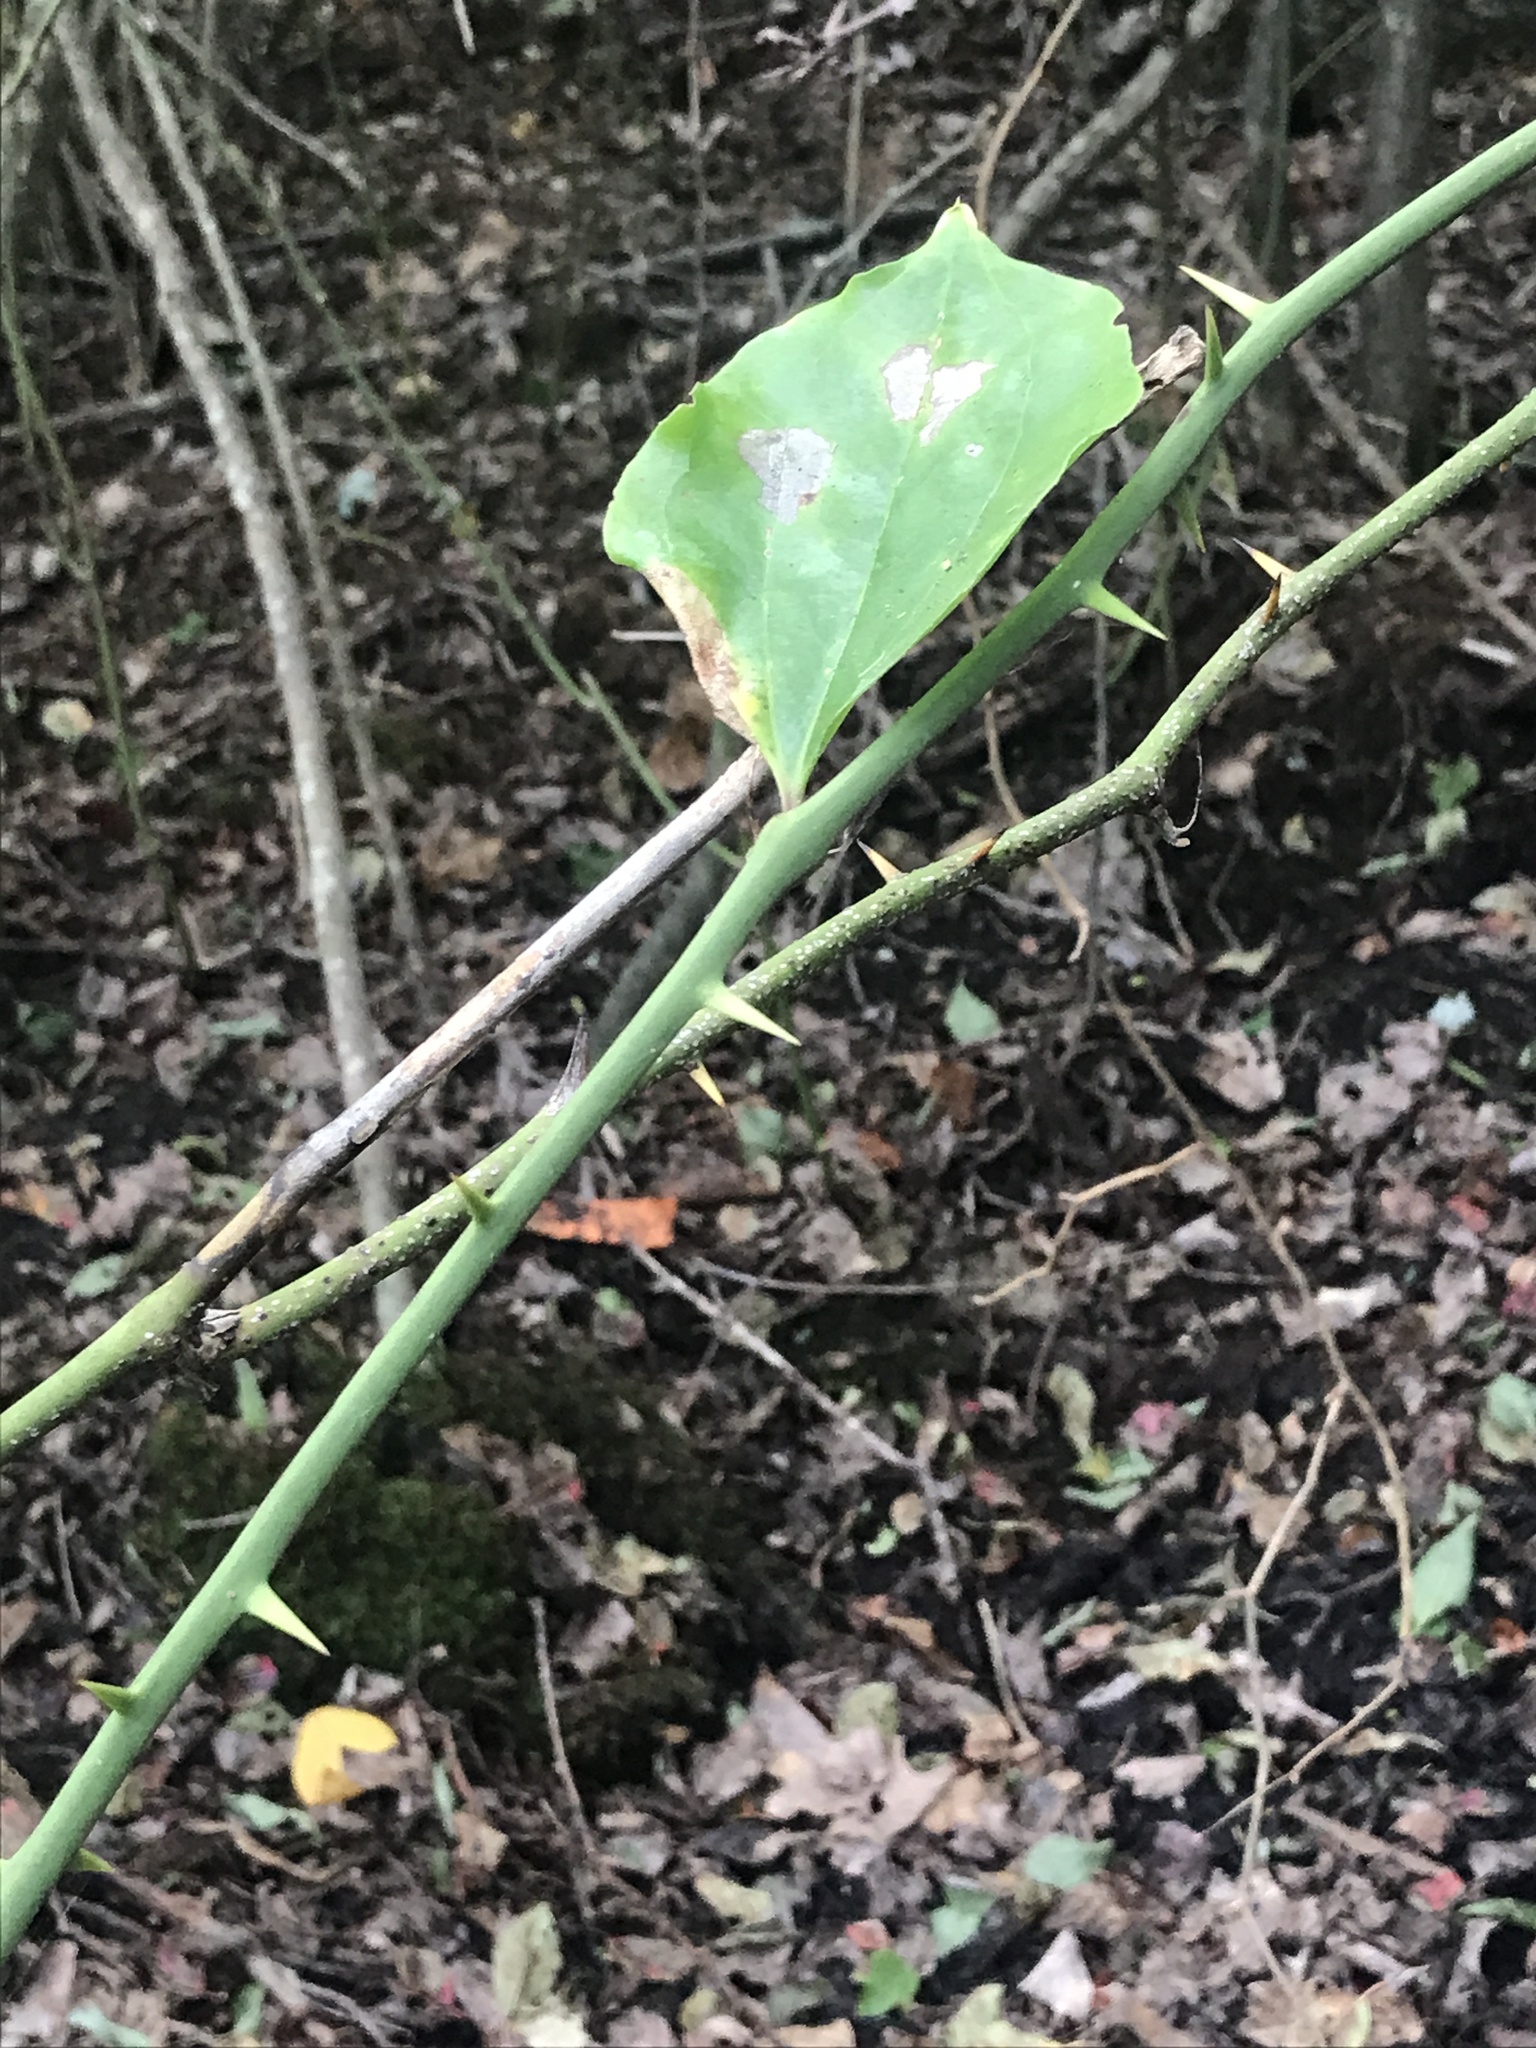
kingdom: Plantae
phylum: Tracheophyta
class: Liliopsida
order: Liliales
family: Smilacaceae
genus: Smilax
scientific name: Smilax rotundifolia
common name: Bullbriar
